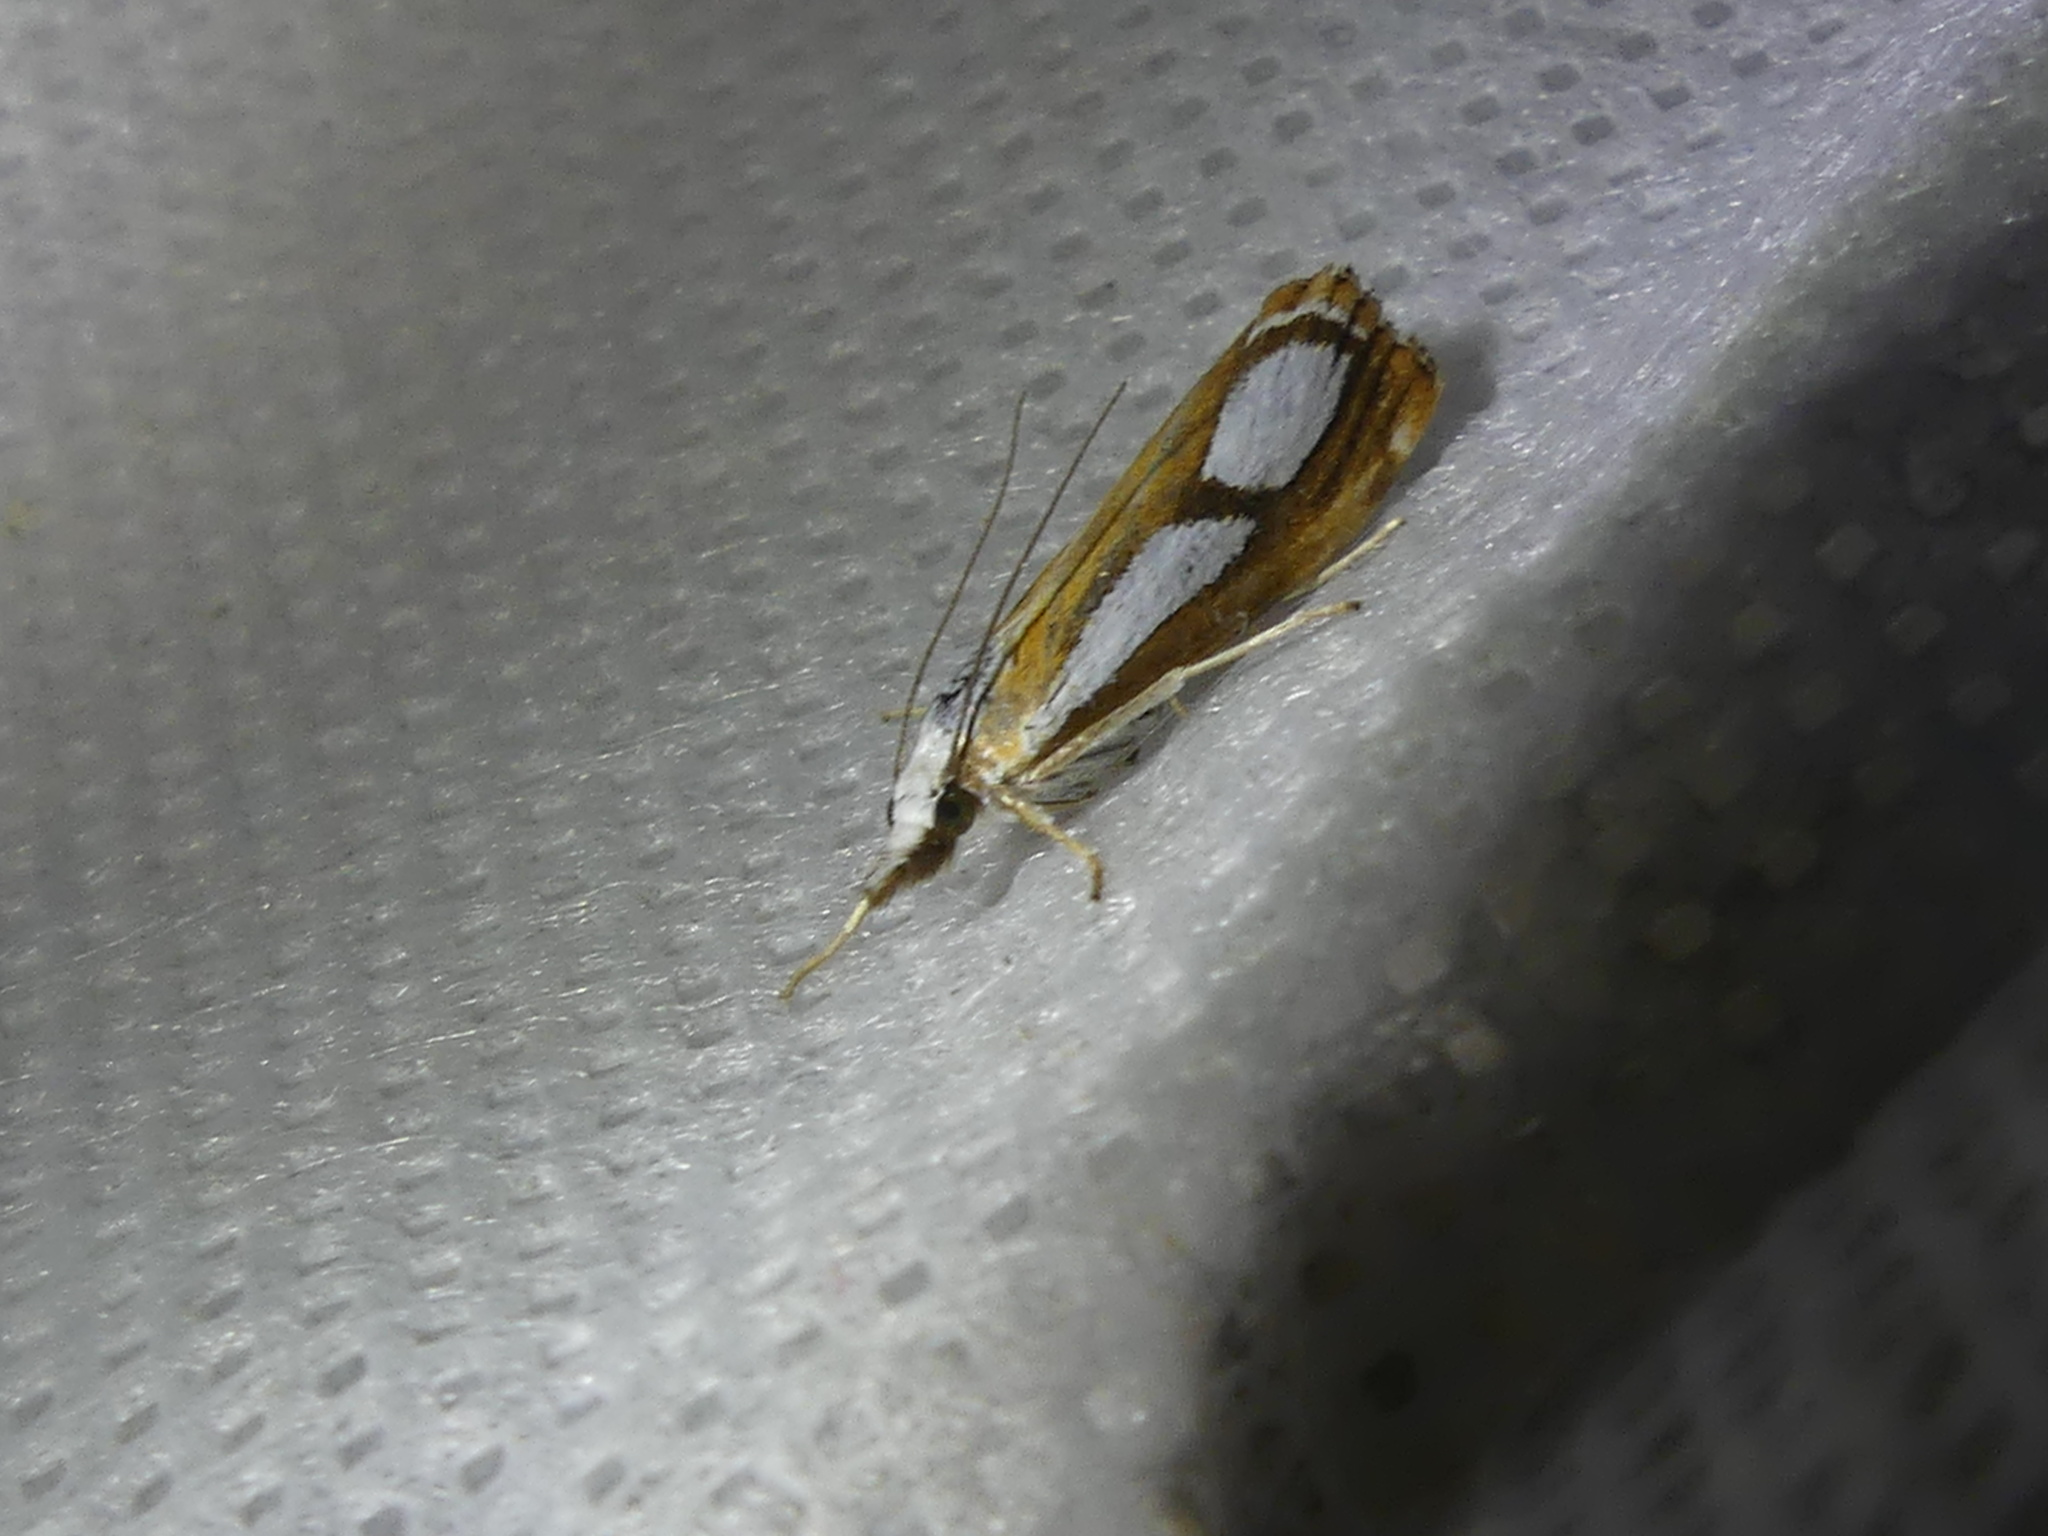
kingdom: Animalia
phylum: Arthropoda
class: Insecta
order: Lepidoptera
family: Crambidae
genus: Catoptria
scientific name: Catoptria
